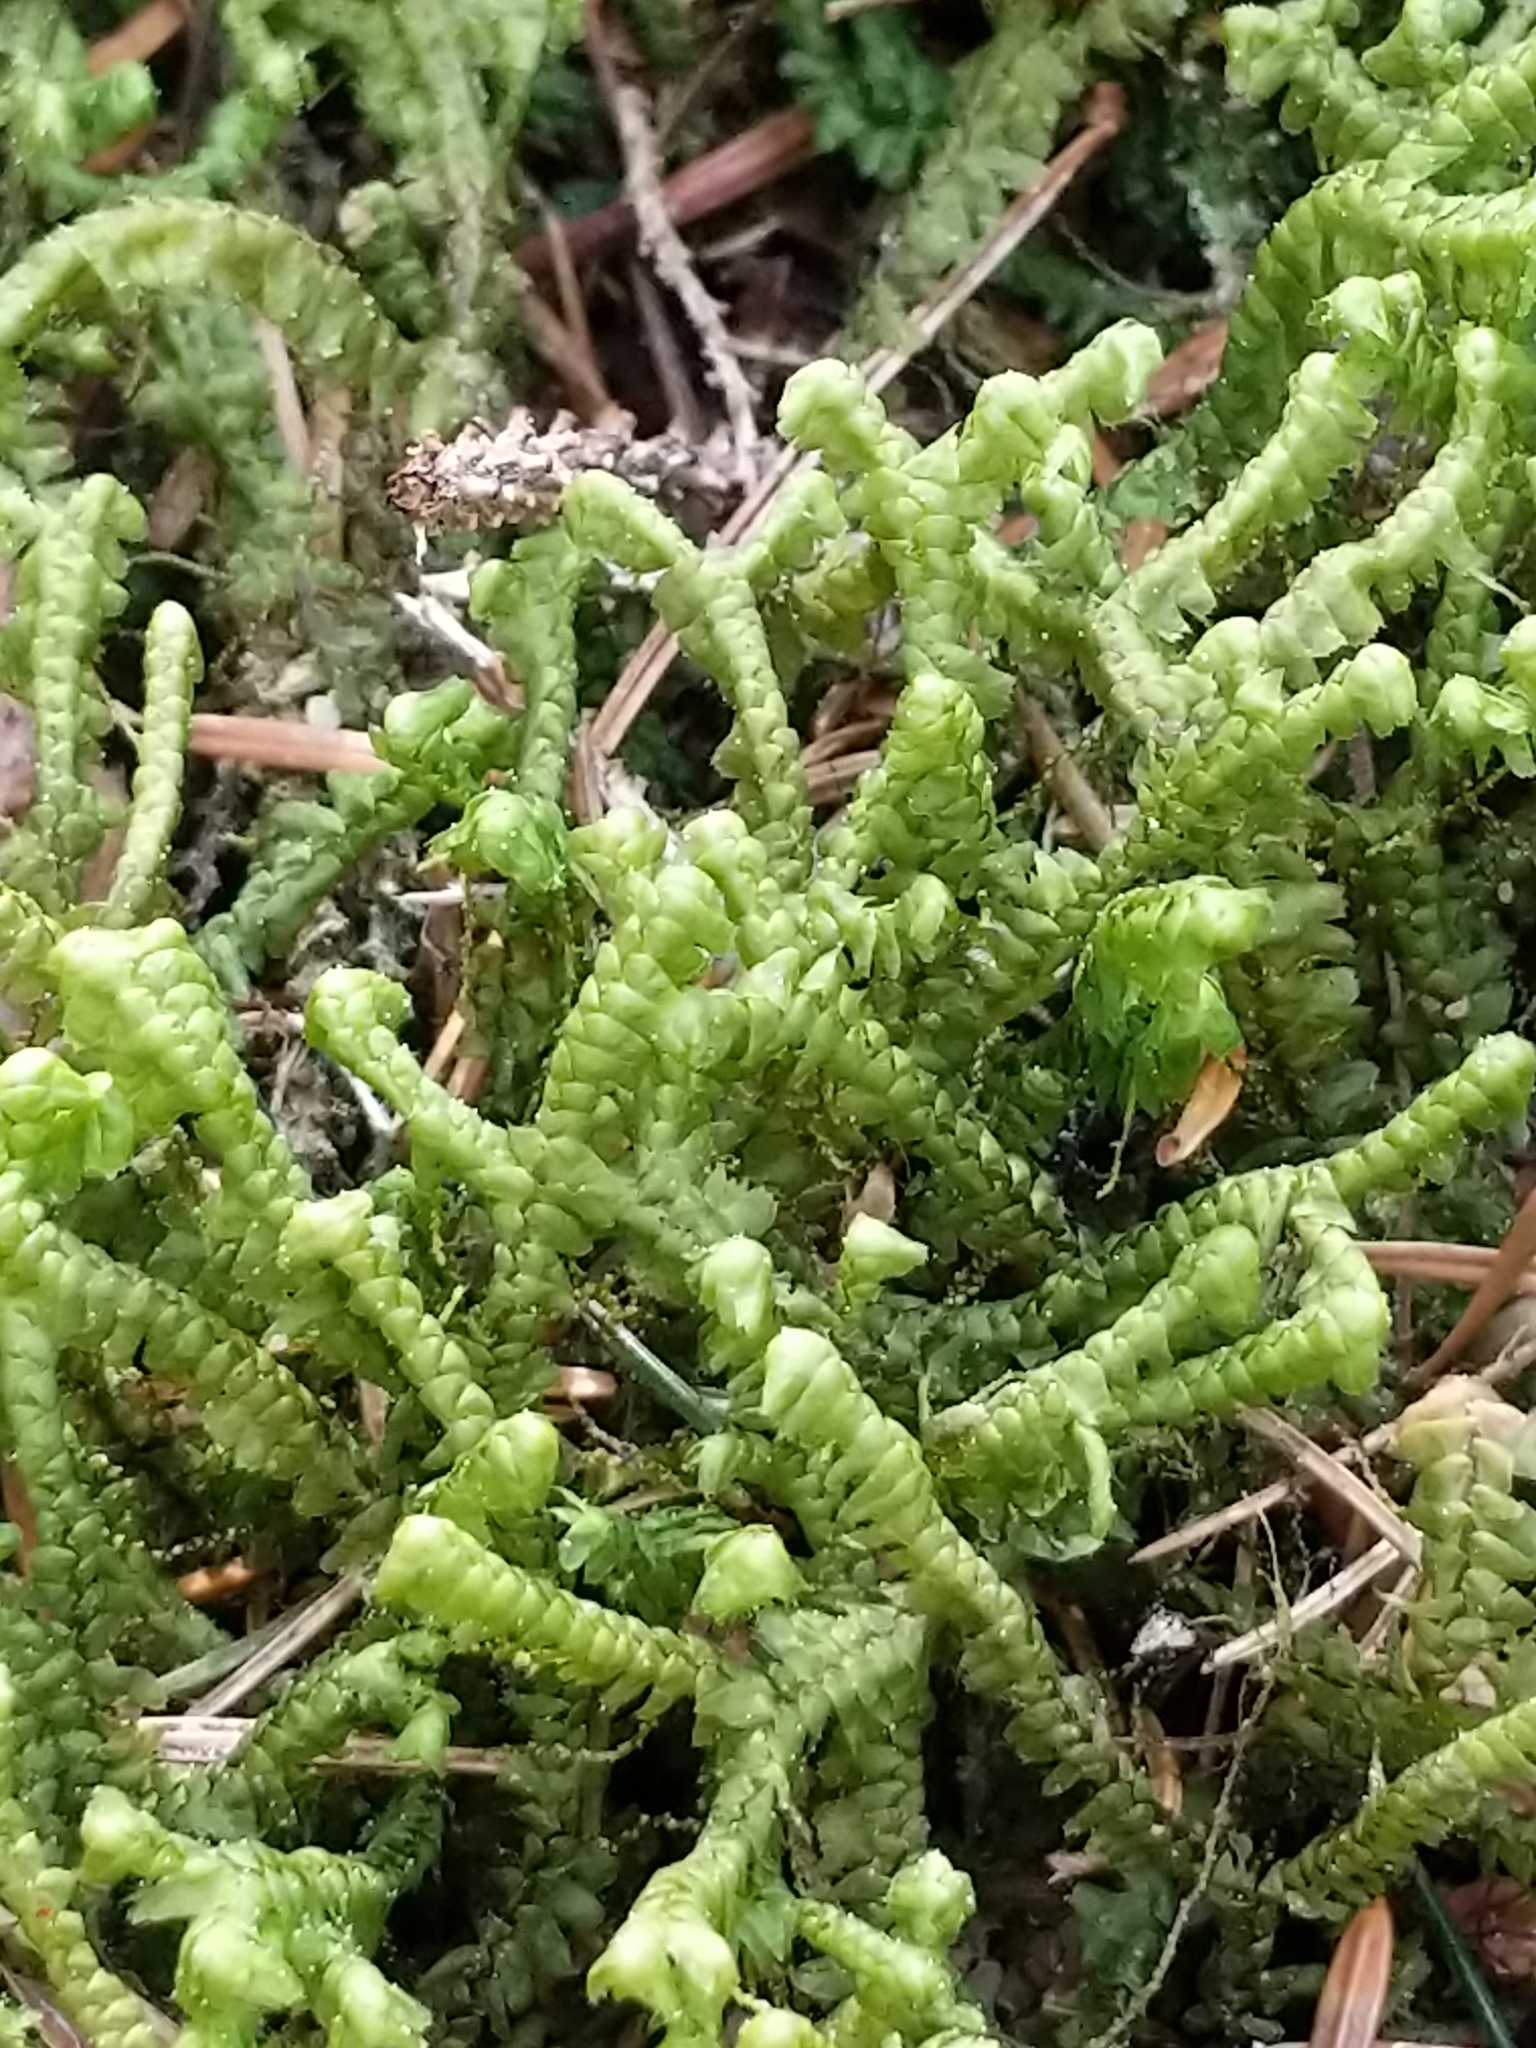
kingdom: Plantae
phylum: Marchantiophyta
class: Jungermanniopsida
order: Jungermanniales
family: Lepidoziaceae
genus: Bazzania
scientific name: Bazzania trilobata
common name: Three-lobed whipwort
